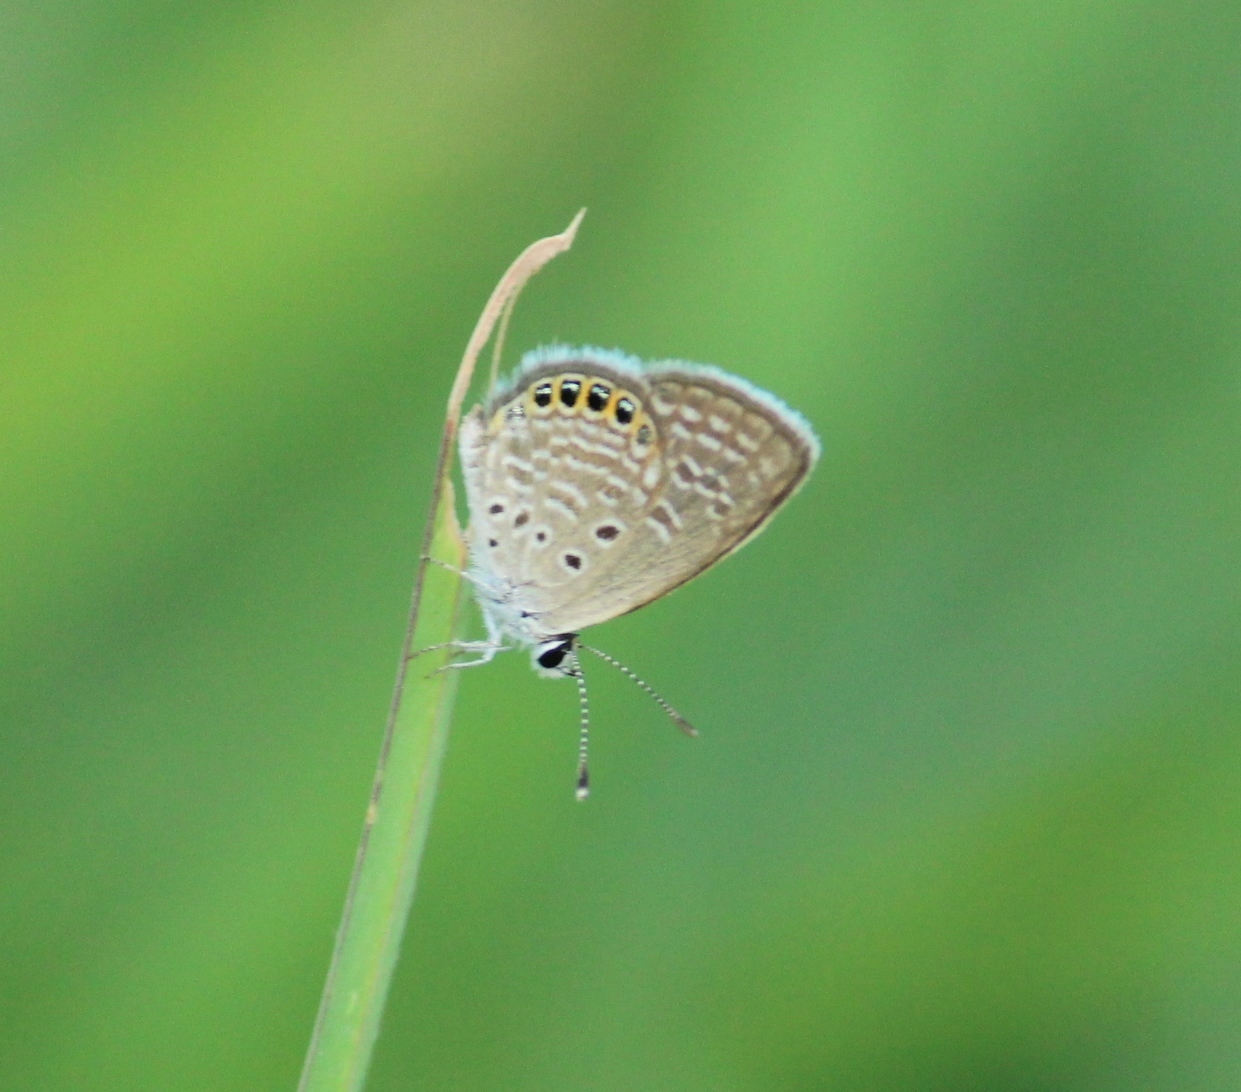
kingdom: Animalia
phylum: Arthropoda
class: Insecta
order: Lepidoptera
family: Lycaenidae
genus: Freyeria
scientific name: Freyeria putli
